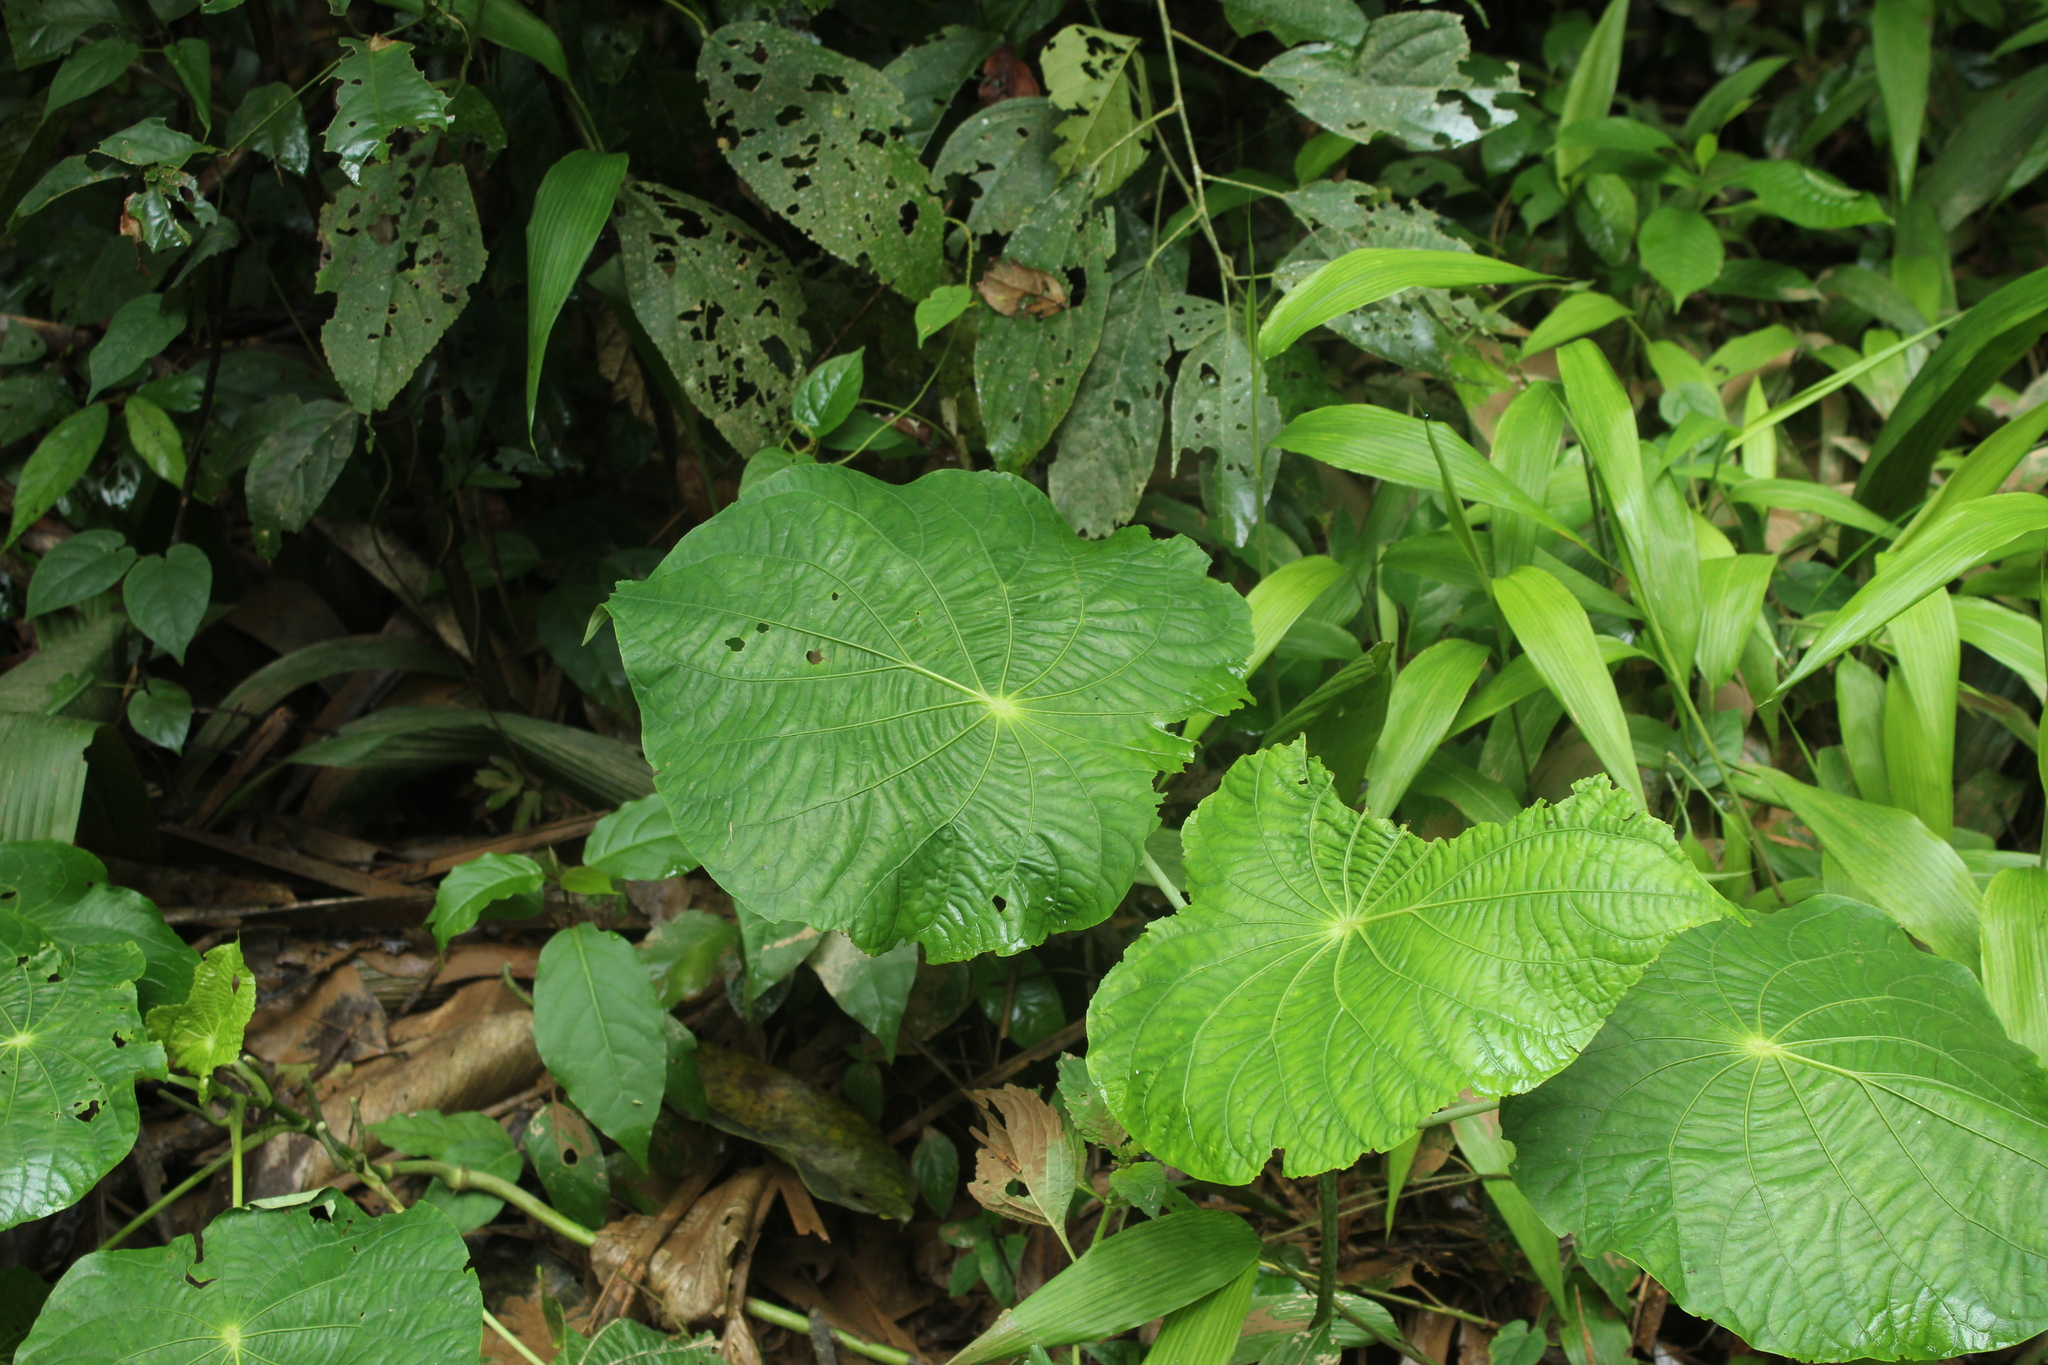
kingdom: Plantae
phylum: Tracheophyta
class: Magnoliopsida
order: Piperales
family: Piperaceae
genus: Piper
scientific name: Piper peltatum
